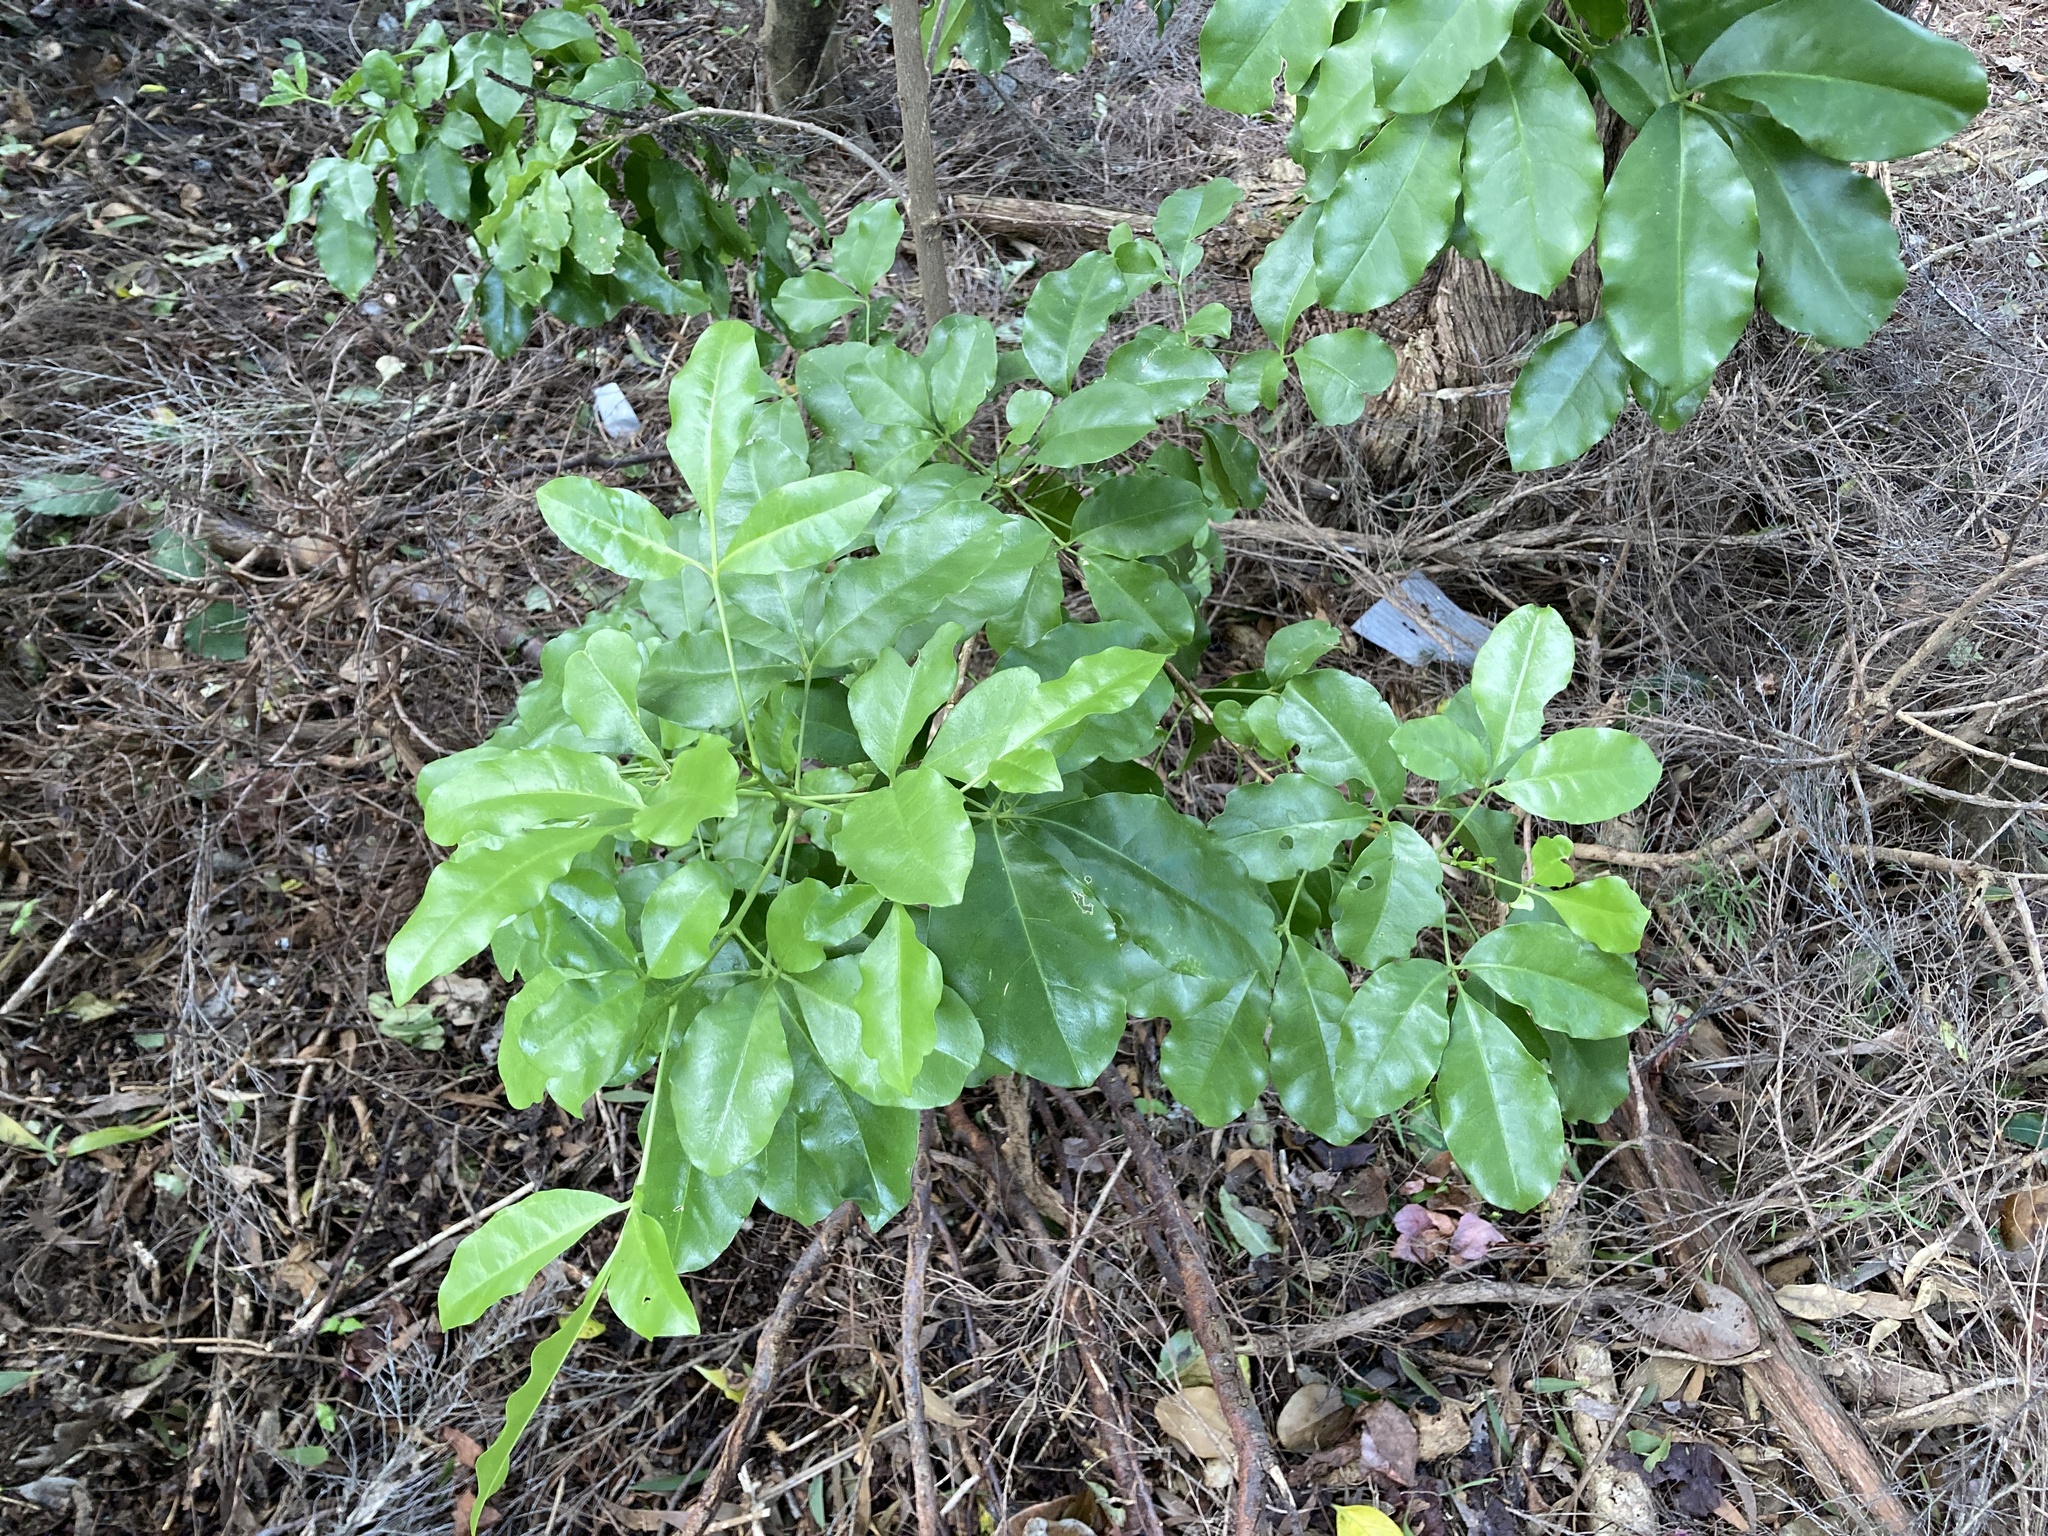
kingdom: Plantae
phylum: Tracheophyta
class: Magnoliopsida
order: Sapindales
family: Rutaceae
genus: Melicope
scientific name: Melicope ternata
